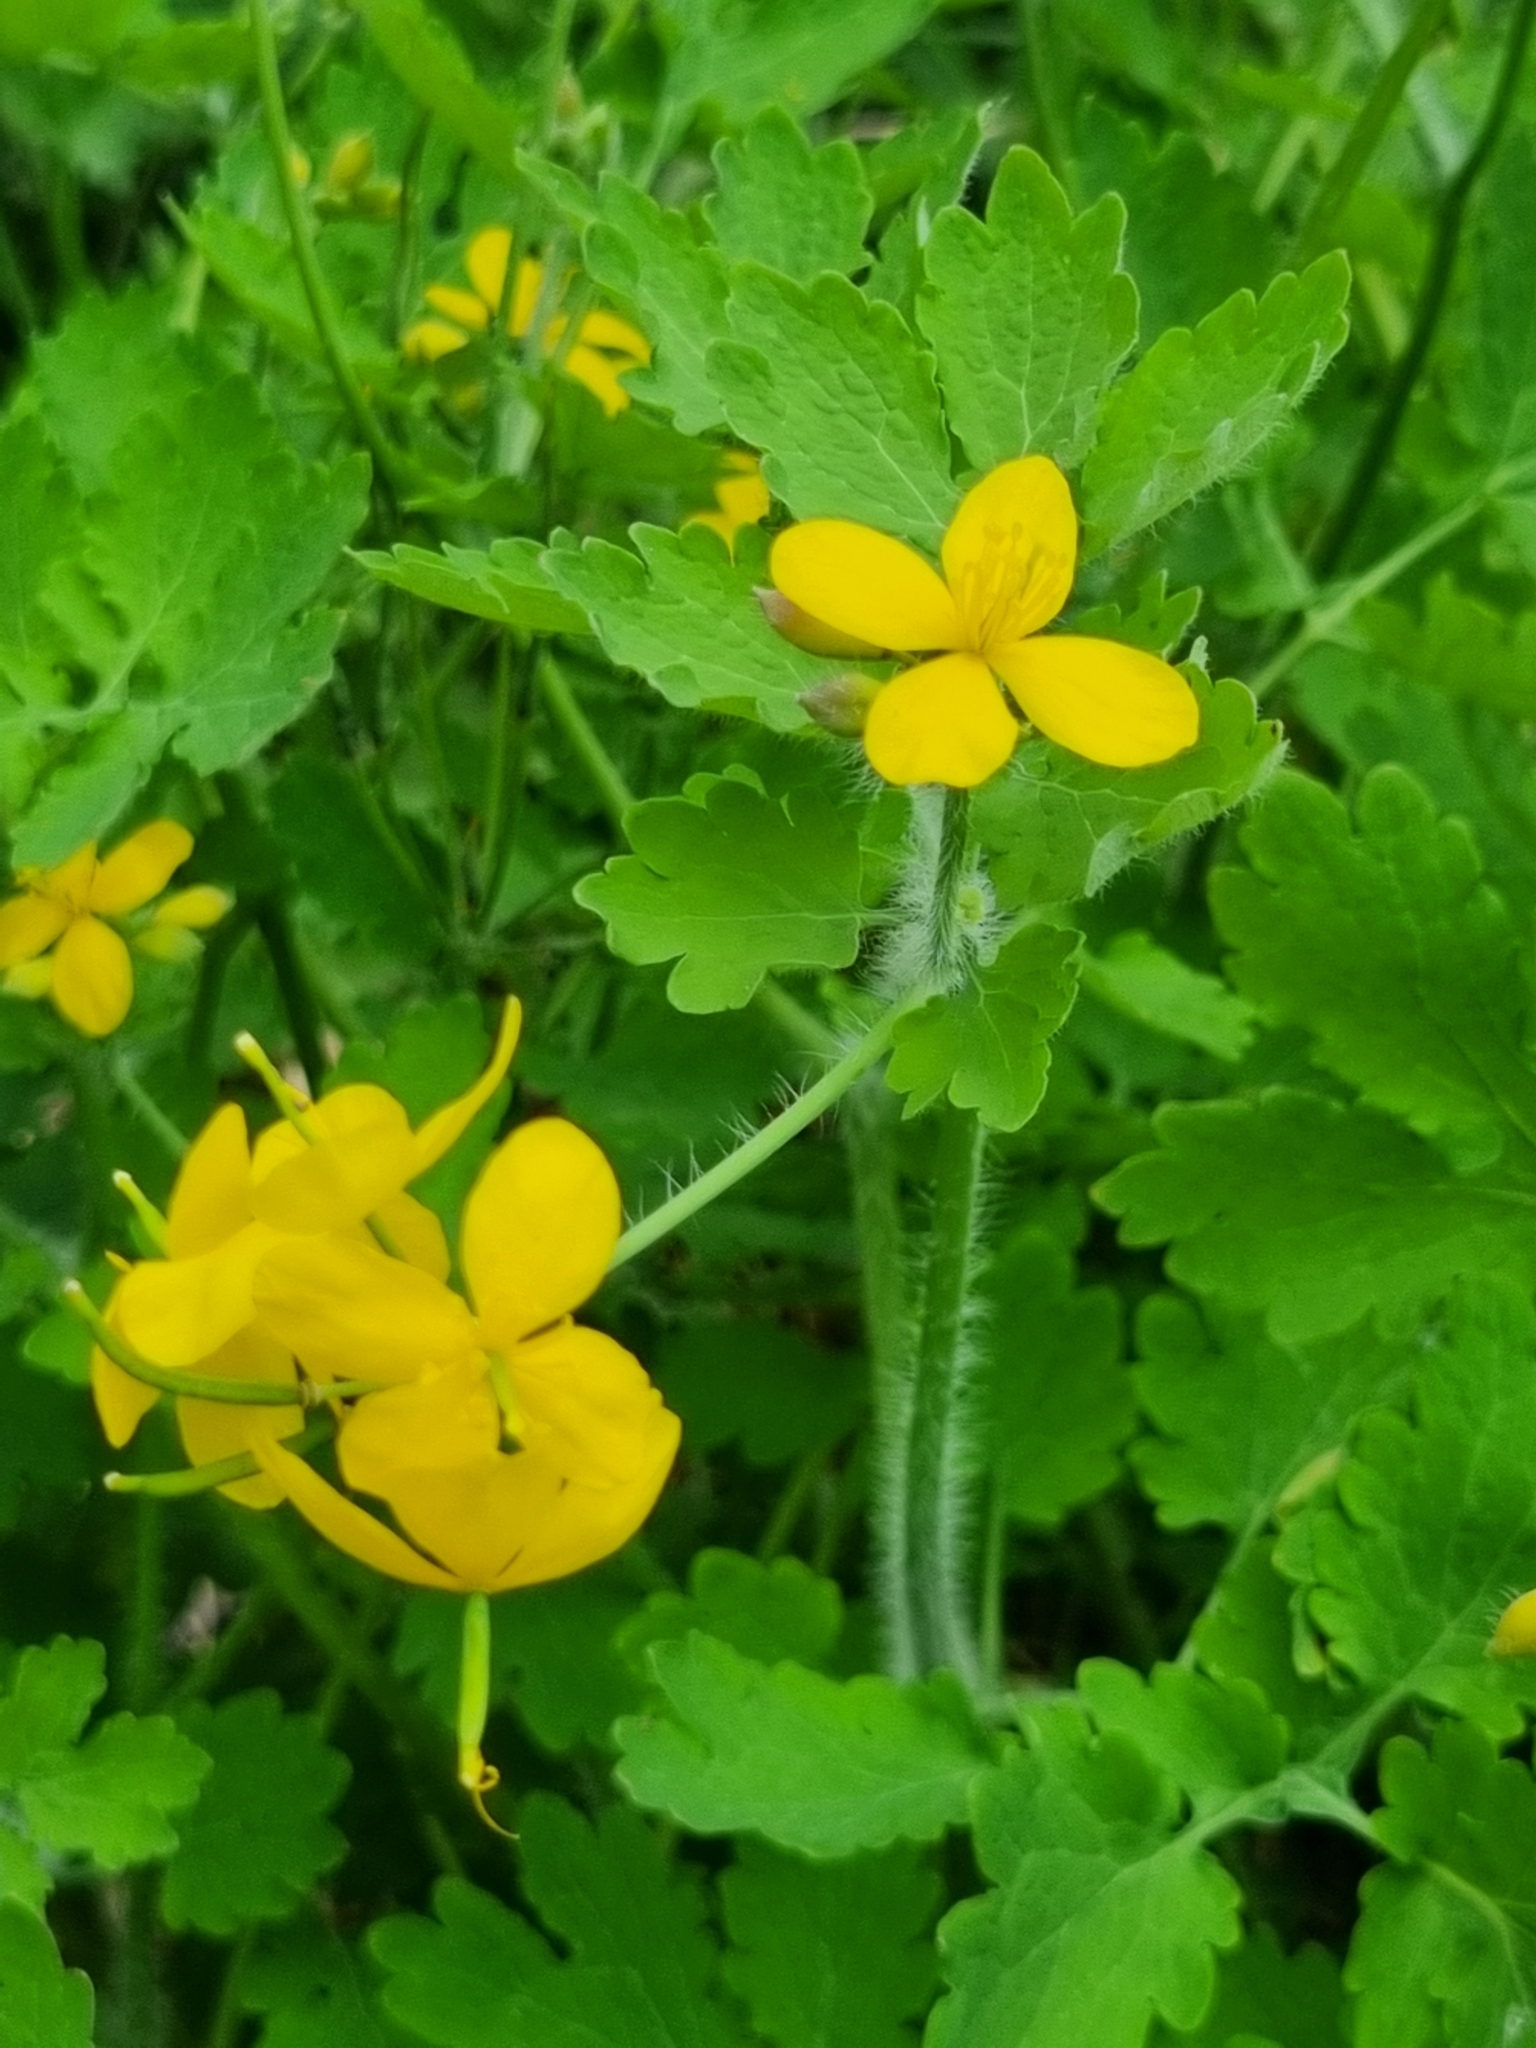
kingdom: Plantae
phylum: Tracheophyta
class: Magnoliopsida
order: Ranunculales
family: Papaveraceae
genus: Chelidonium
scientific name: Chelidonium majus
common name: Greater celandine
